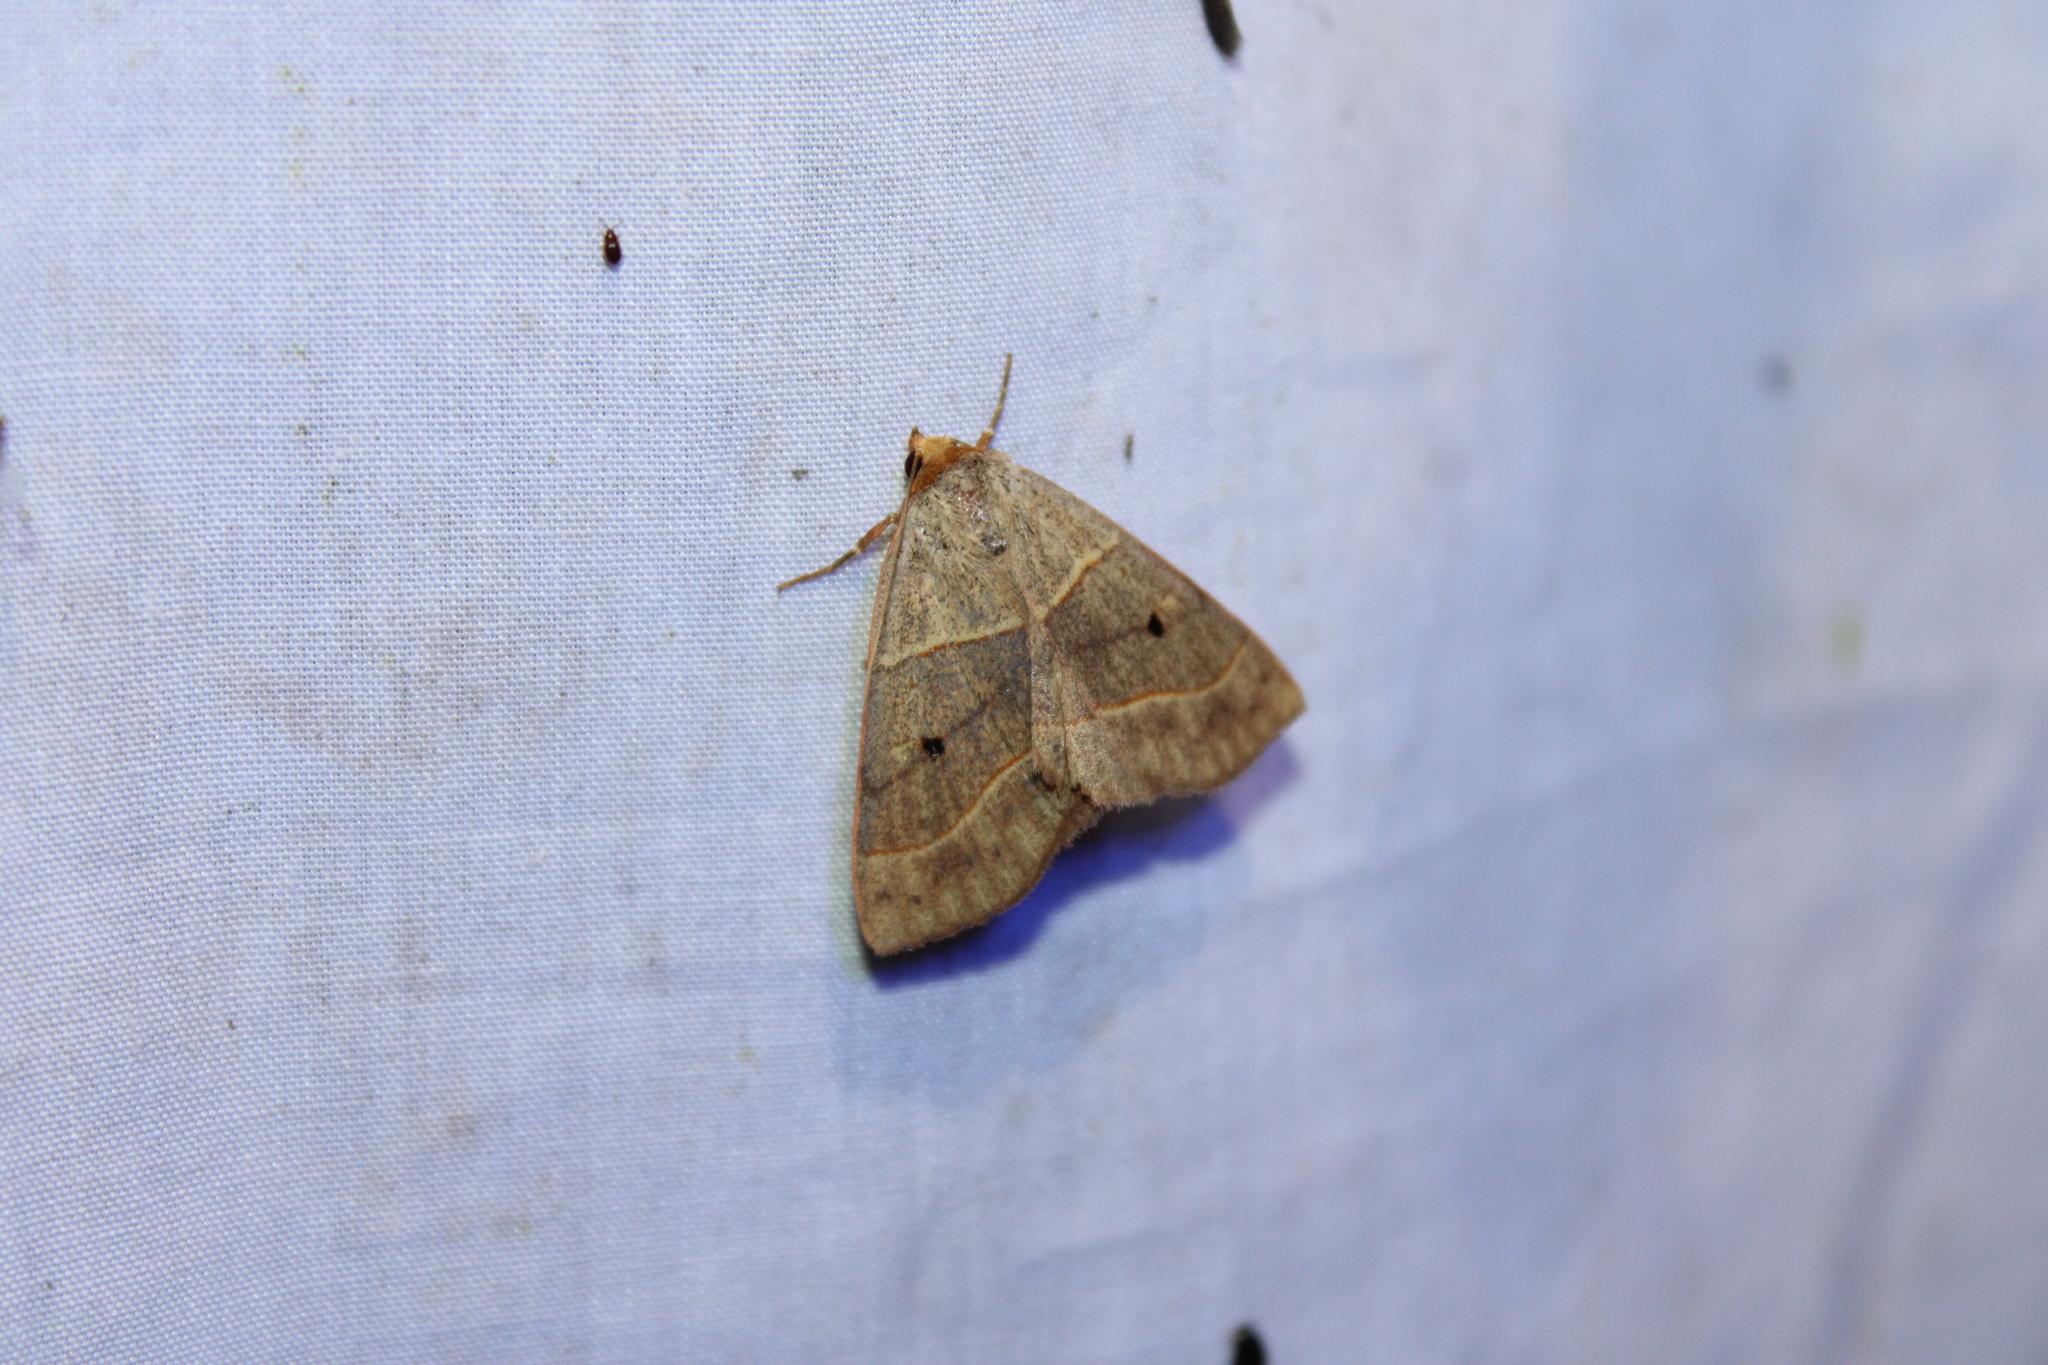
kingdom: Animalia
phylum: Arthropoda
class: Insecta
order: Lepidoptera
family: Erebidae
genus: Panopoda
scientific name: Panopoda rufimargo
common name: Red-lined panopoda moth
